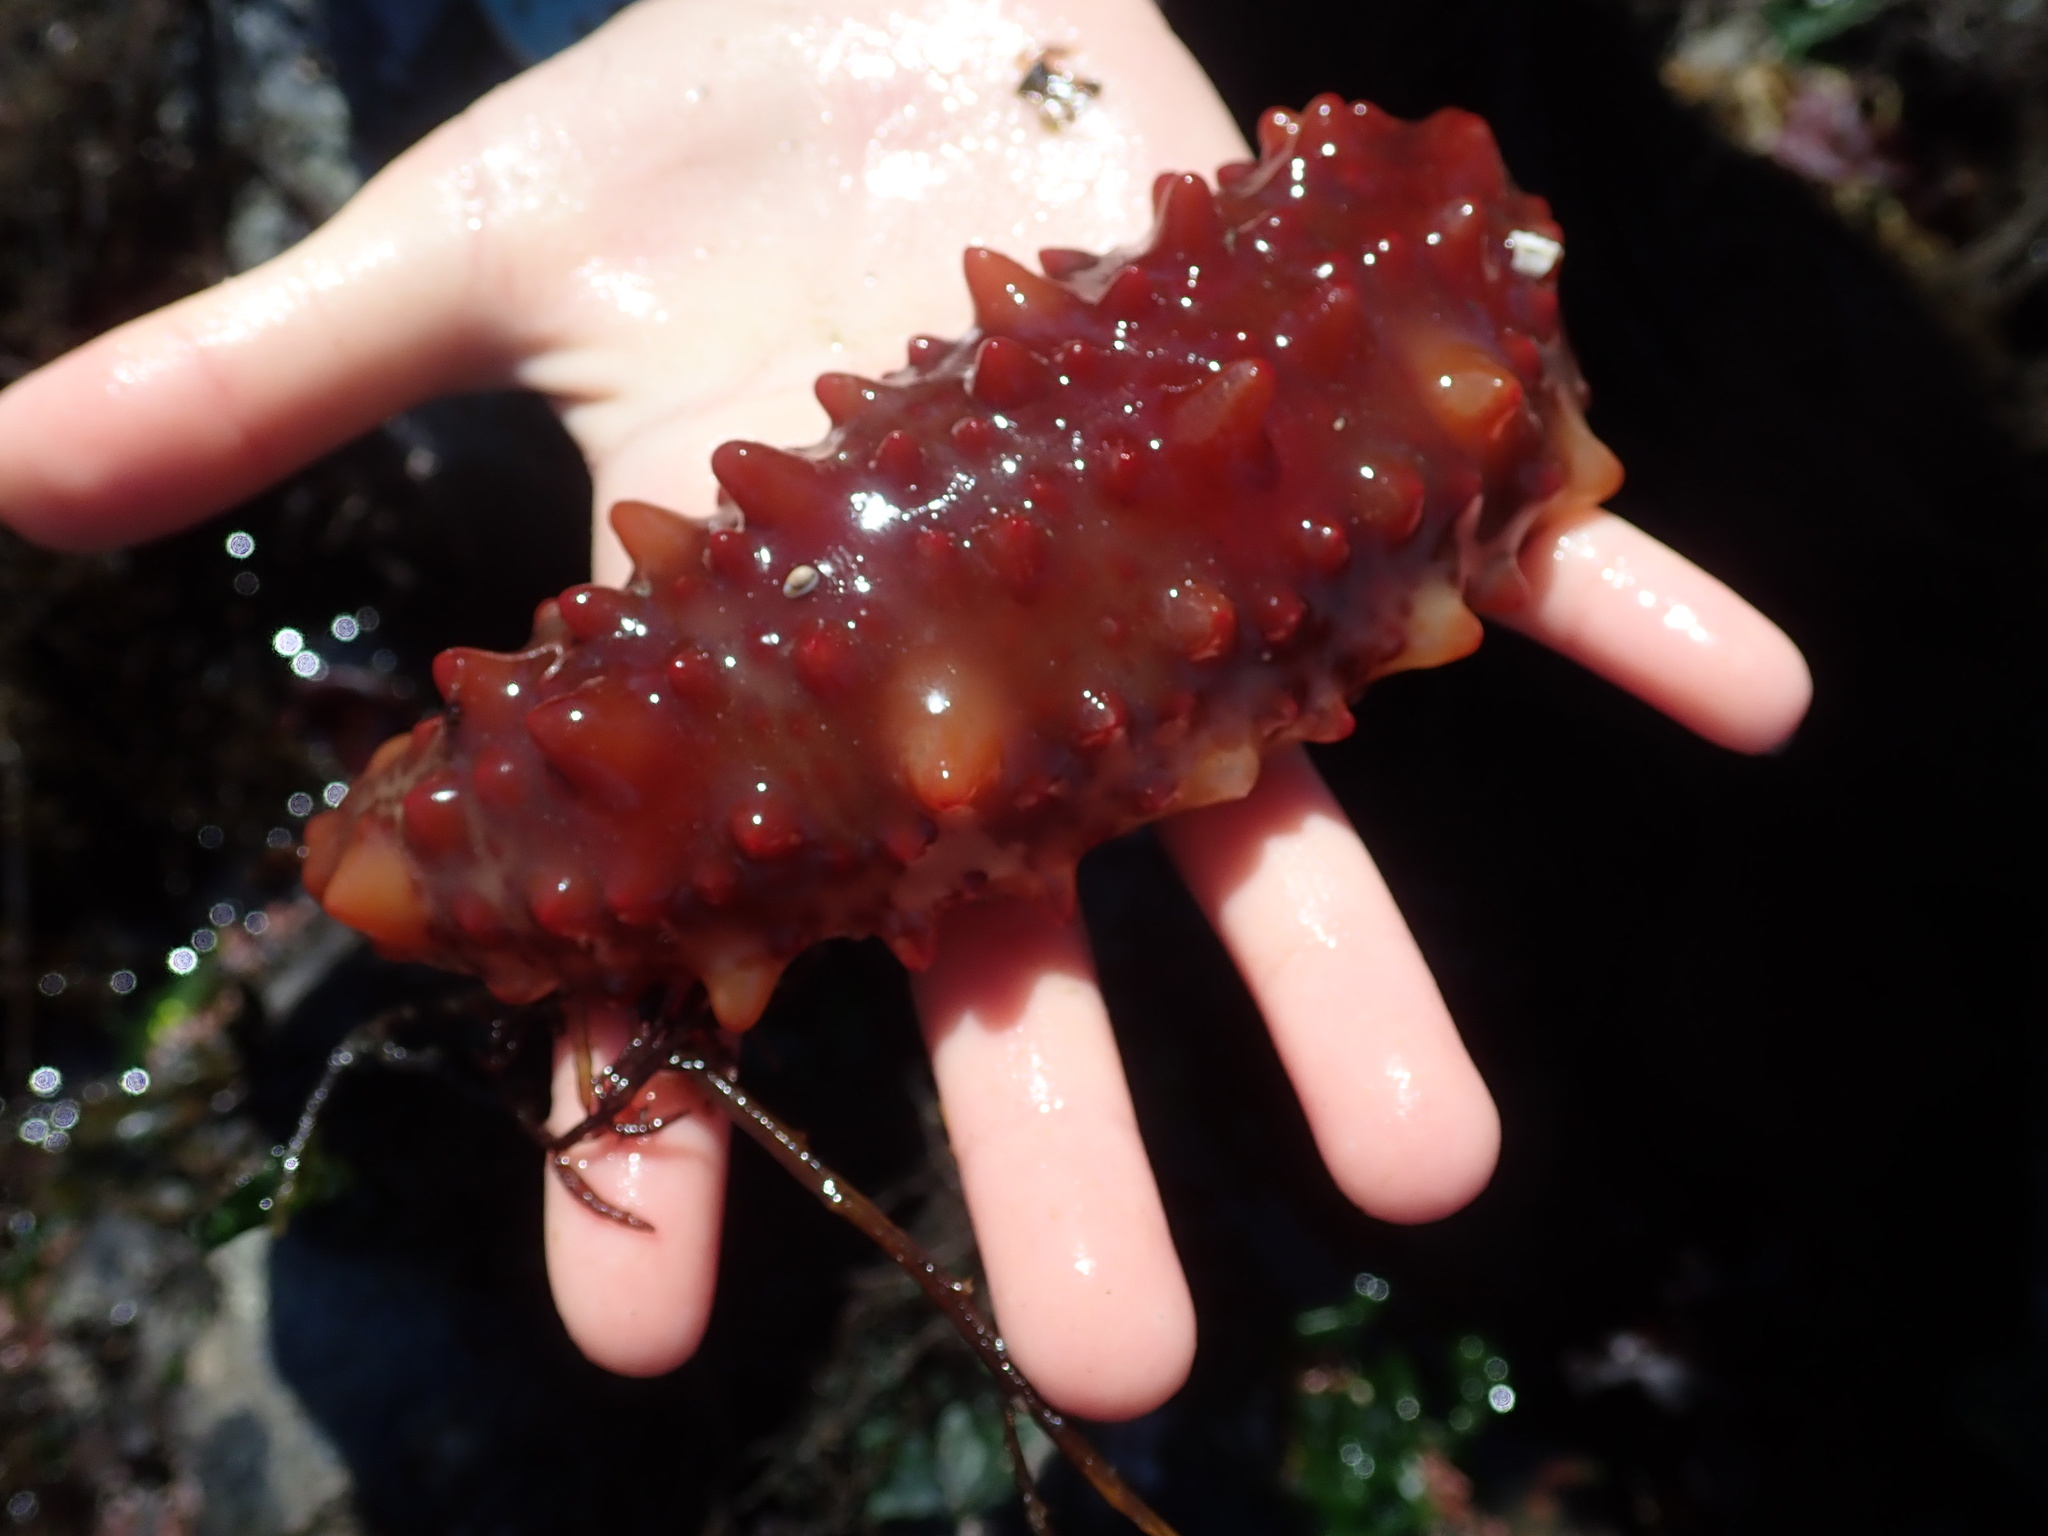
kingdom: Animalia
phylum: Echinodermata
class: Holothuroidea
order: Synallactida
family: Stichopodidae
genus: Apostichopus
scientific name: Apostichopus californicus
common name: California sea cucumber
